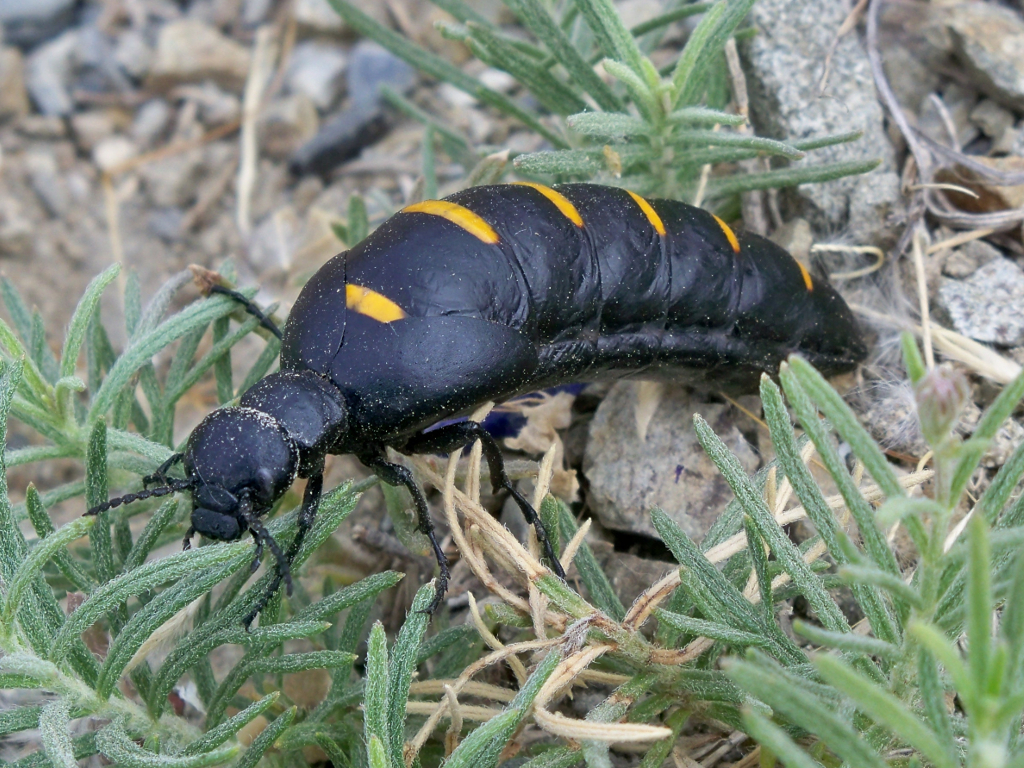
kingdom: Animalia
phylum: Arthropoda
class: Insecta
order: Coleoptera
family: Meloidae
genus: Berberomeloe
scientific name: Berberomeloe majalis
